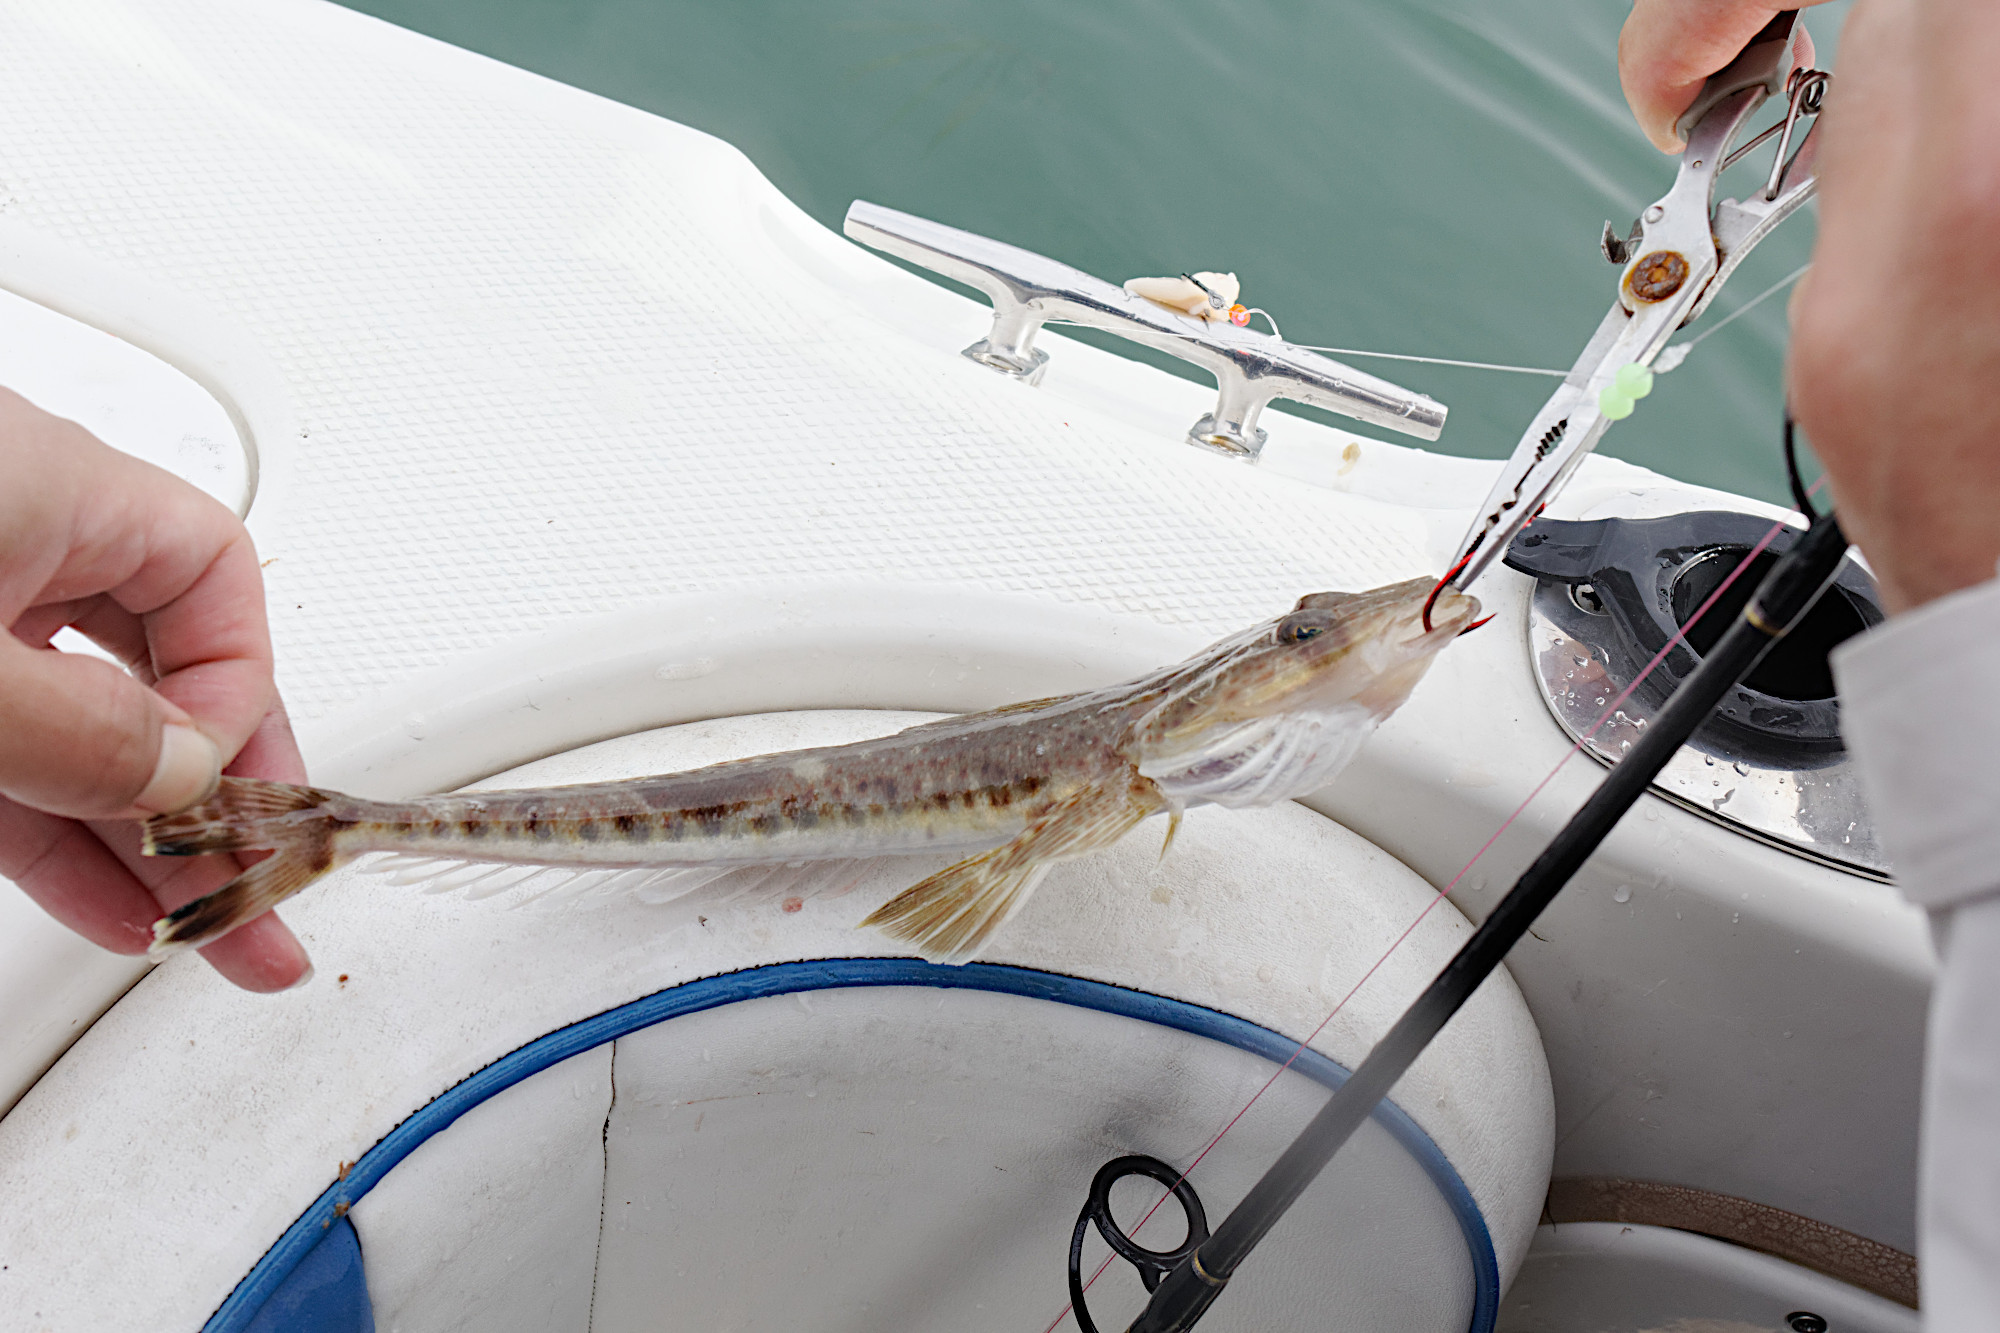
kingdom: Animalia
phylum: Chordata
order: Scorpaeniformes
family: Platycephalidae
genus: Platycephalus
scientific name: Platycephalus bassensis
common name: Sand flathead
